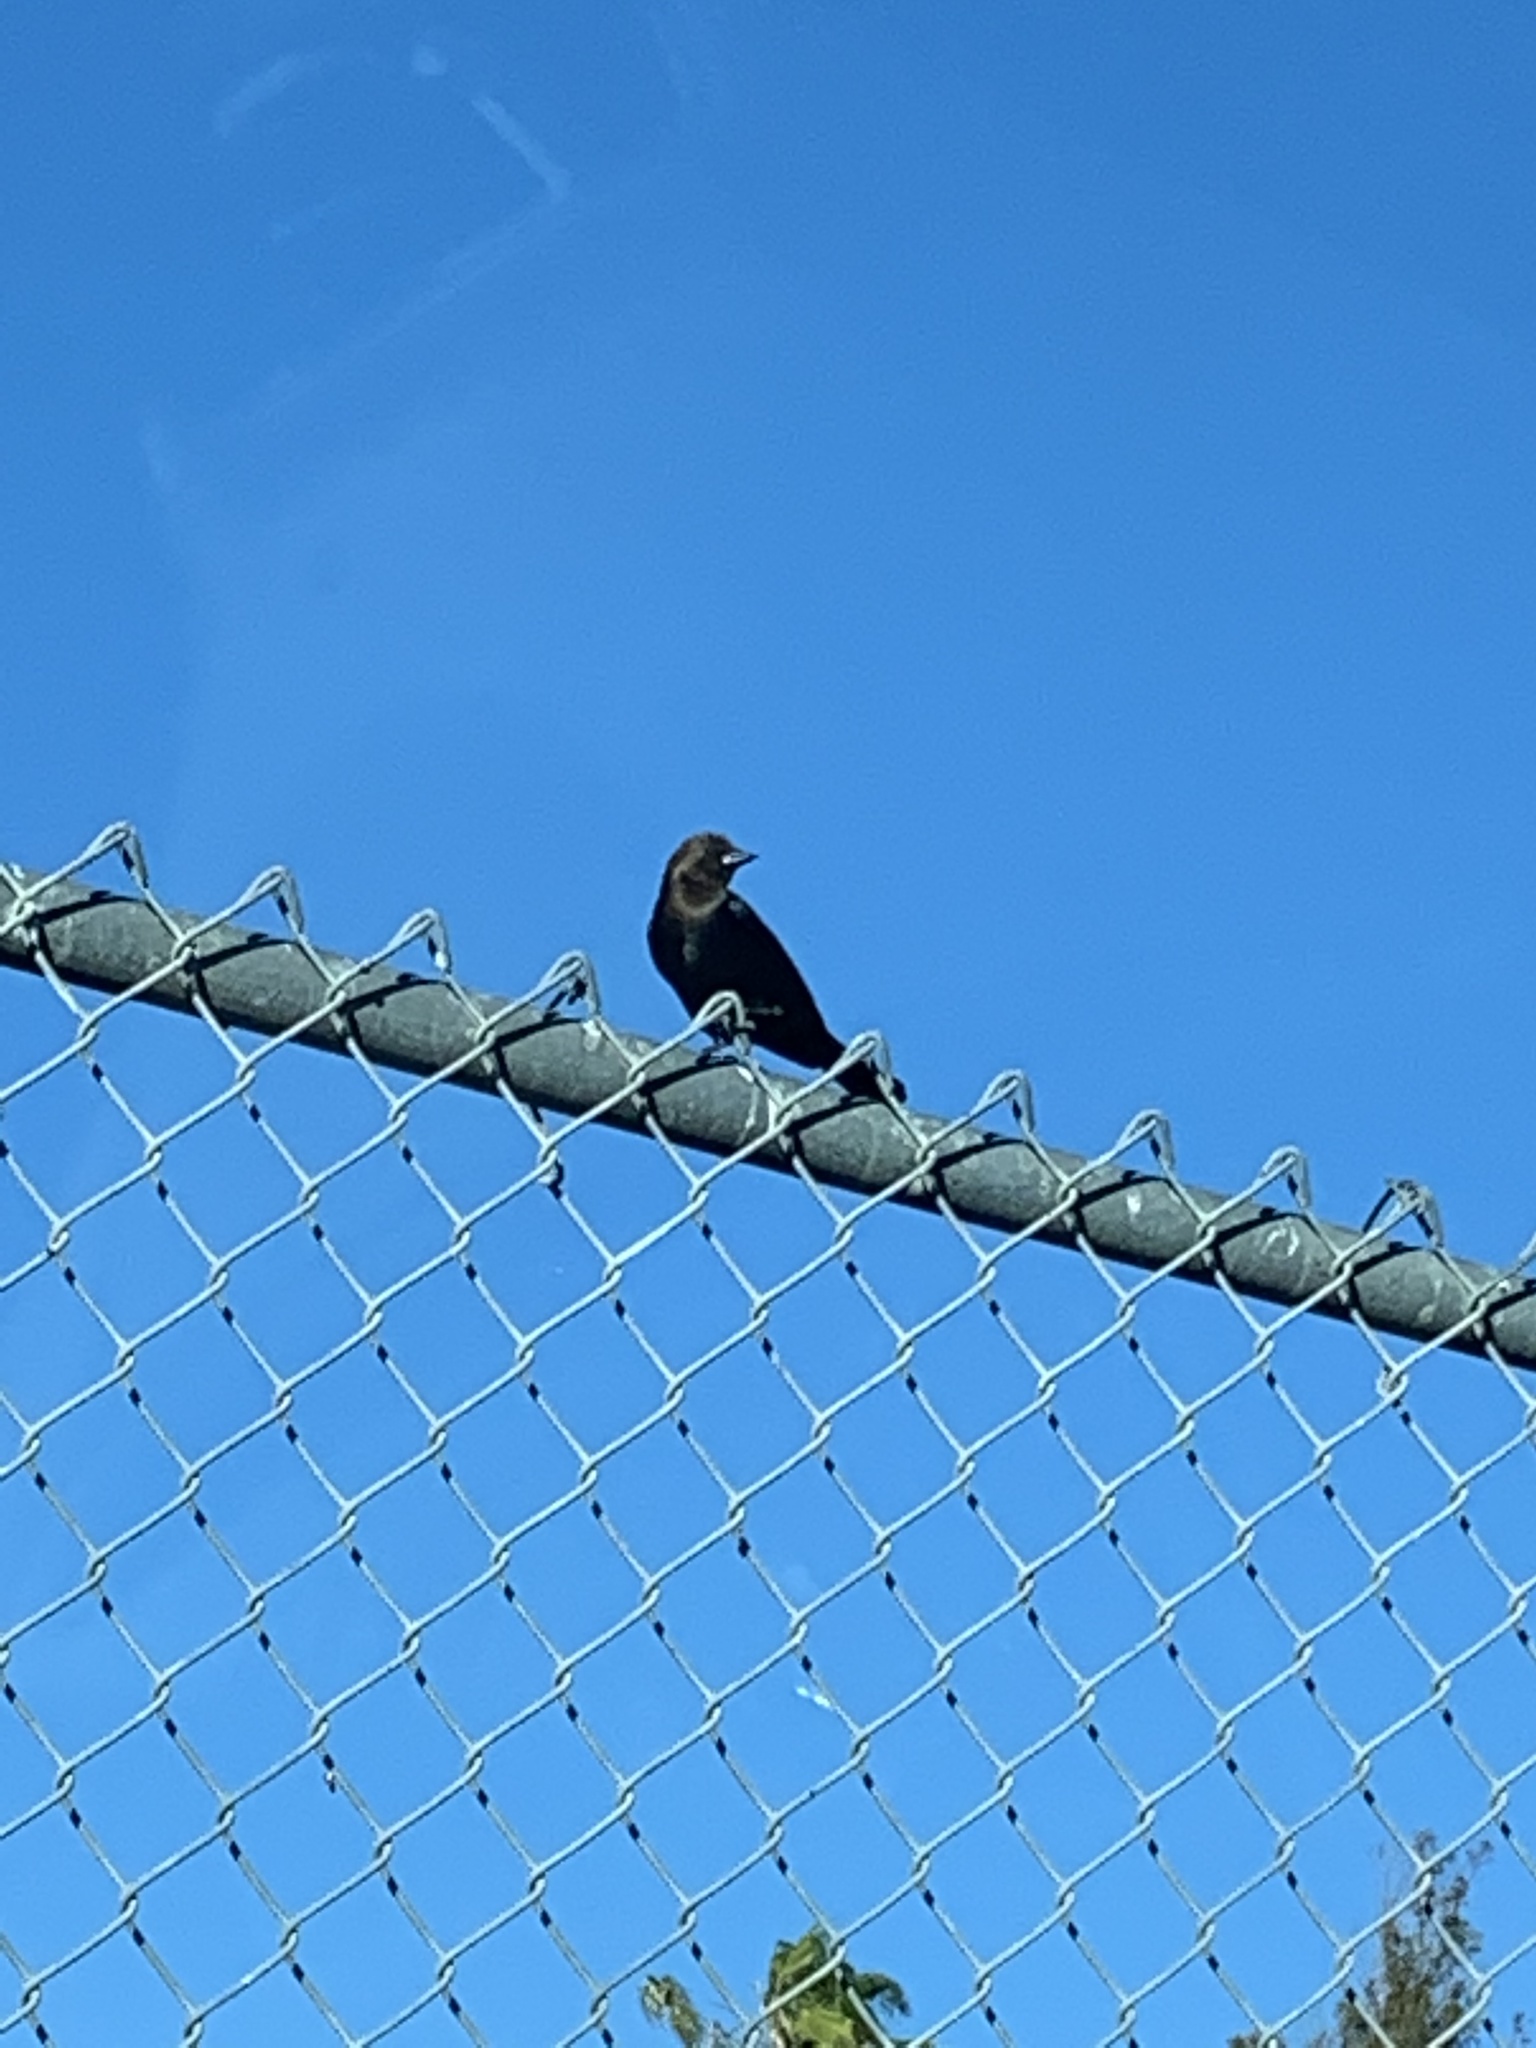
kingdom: Animalia
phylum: Chordata
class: Aves
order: Passeriformes
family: Icteridae
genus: Molothrus
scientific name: Molothrus ater
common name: Brown-headed cowbird
